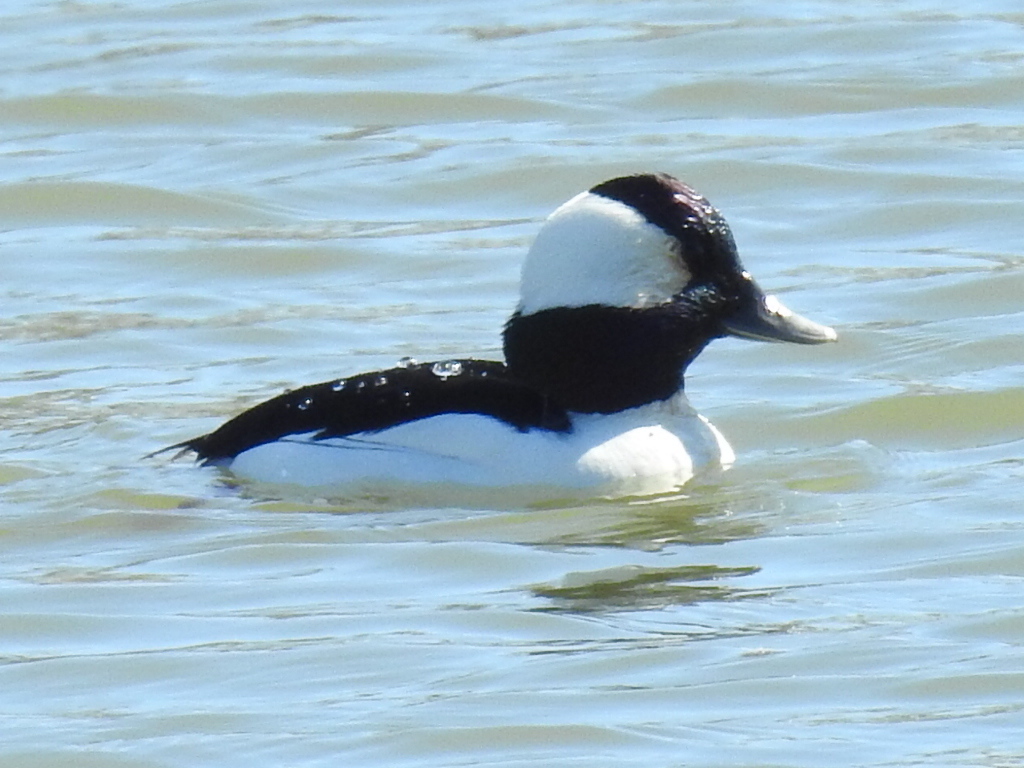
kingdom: Animalia
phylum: Chordata
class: Aves
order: Anseriformes
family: Anatidae
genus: Bucephala
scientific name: Bucephala albeola
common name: Bufflehead
